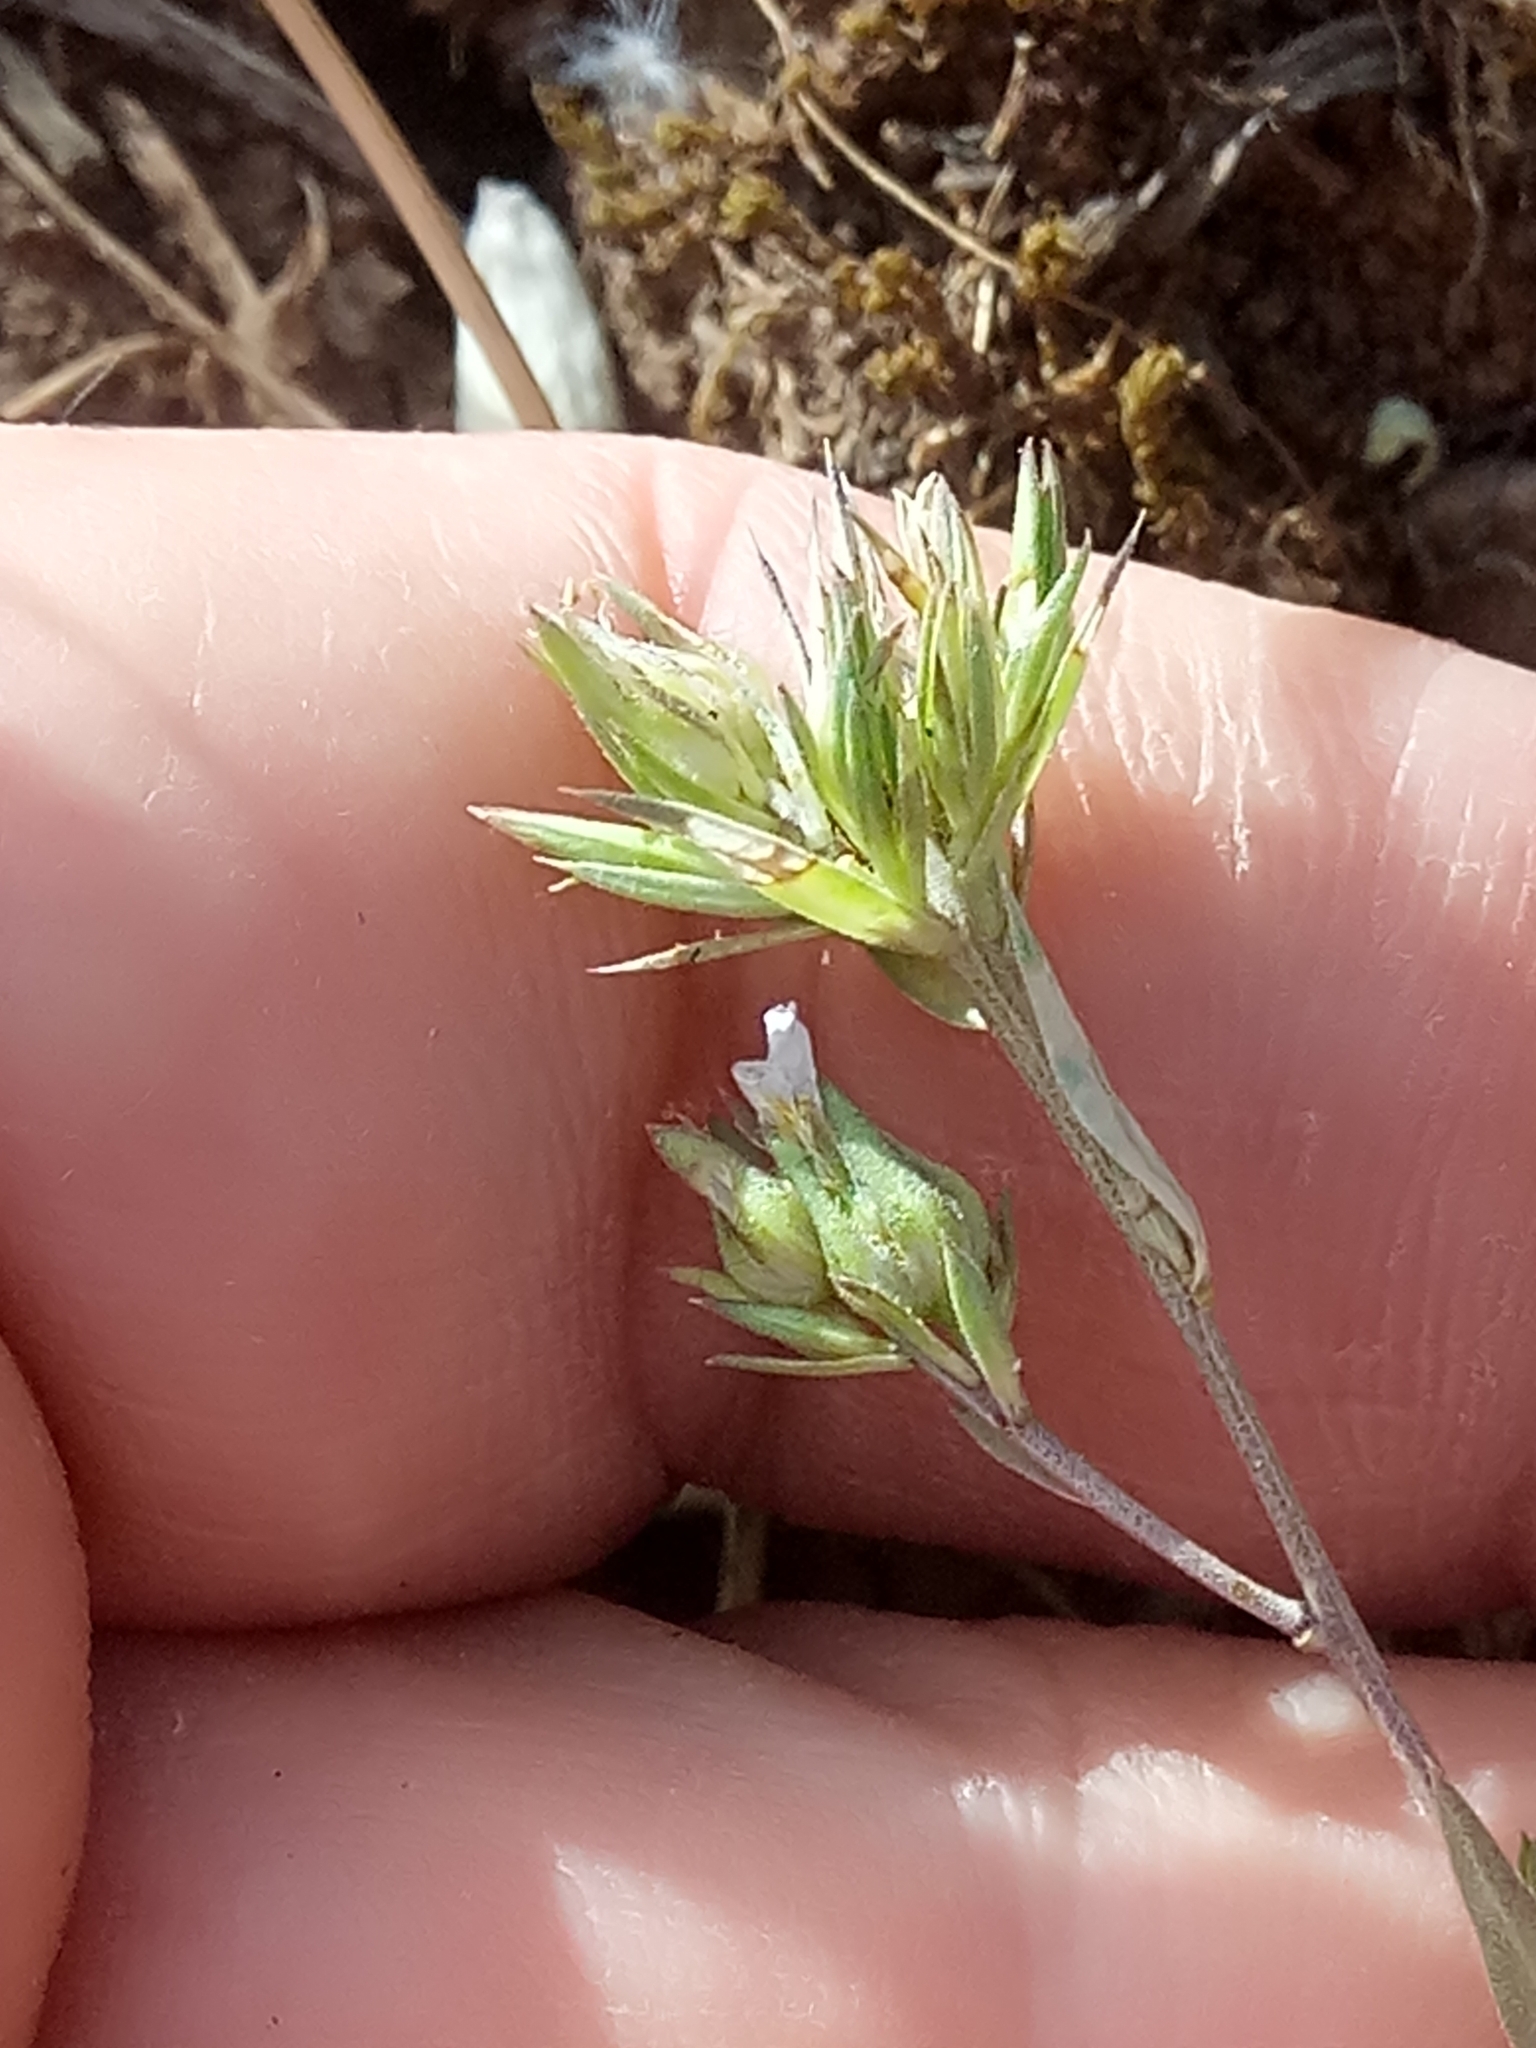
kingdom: Plantae
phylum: Tracheophyta
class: Magnoliopsida
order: Malpighiales
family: Linaceae
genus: Linum
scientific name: Linum strictum
